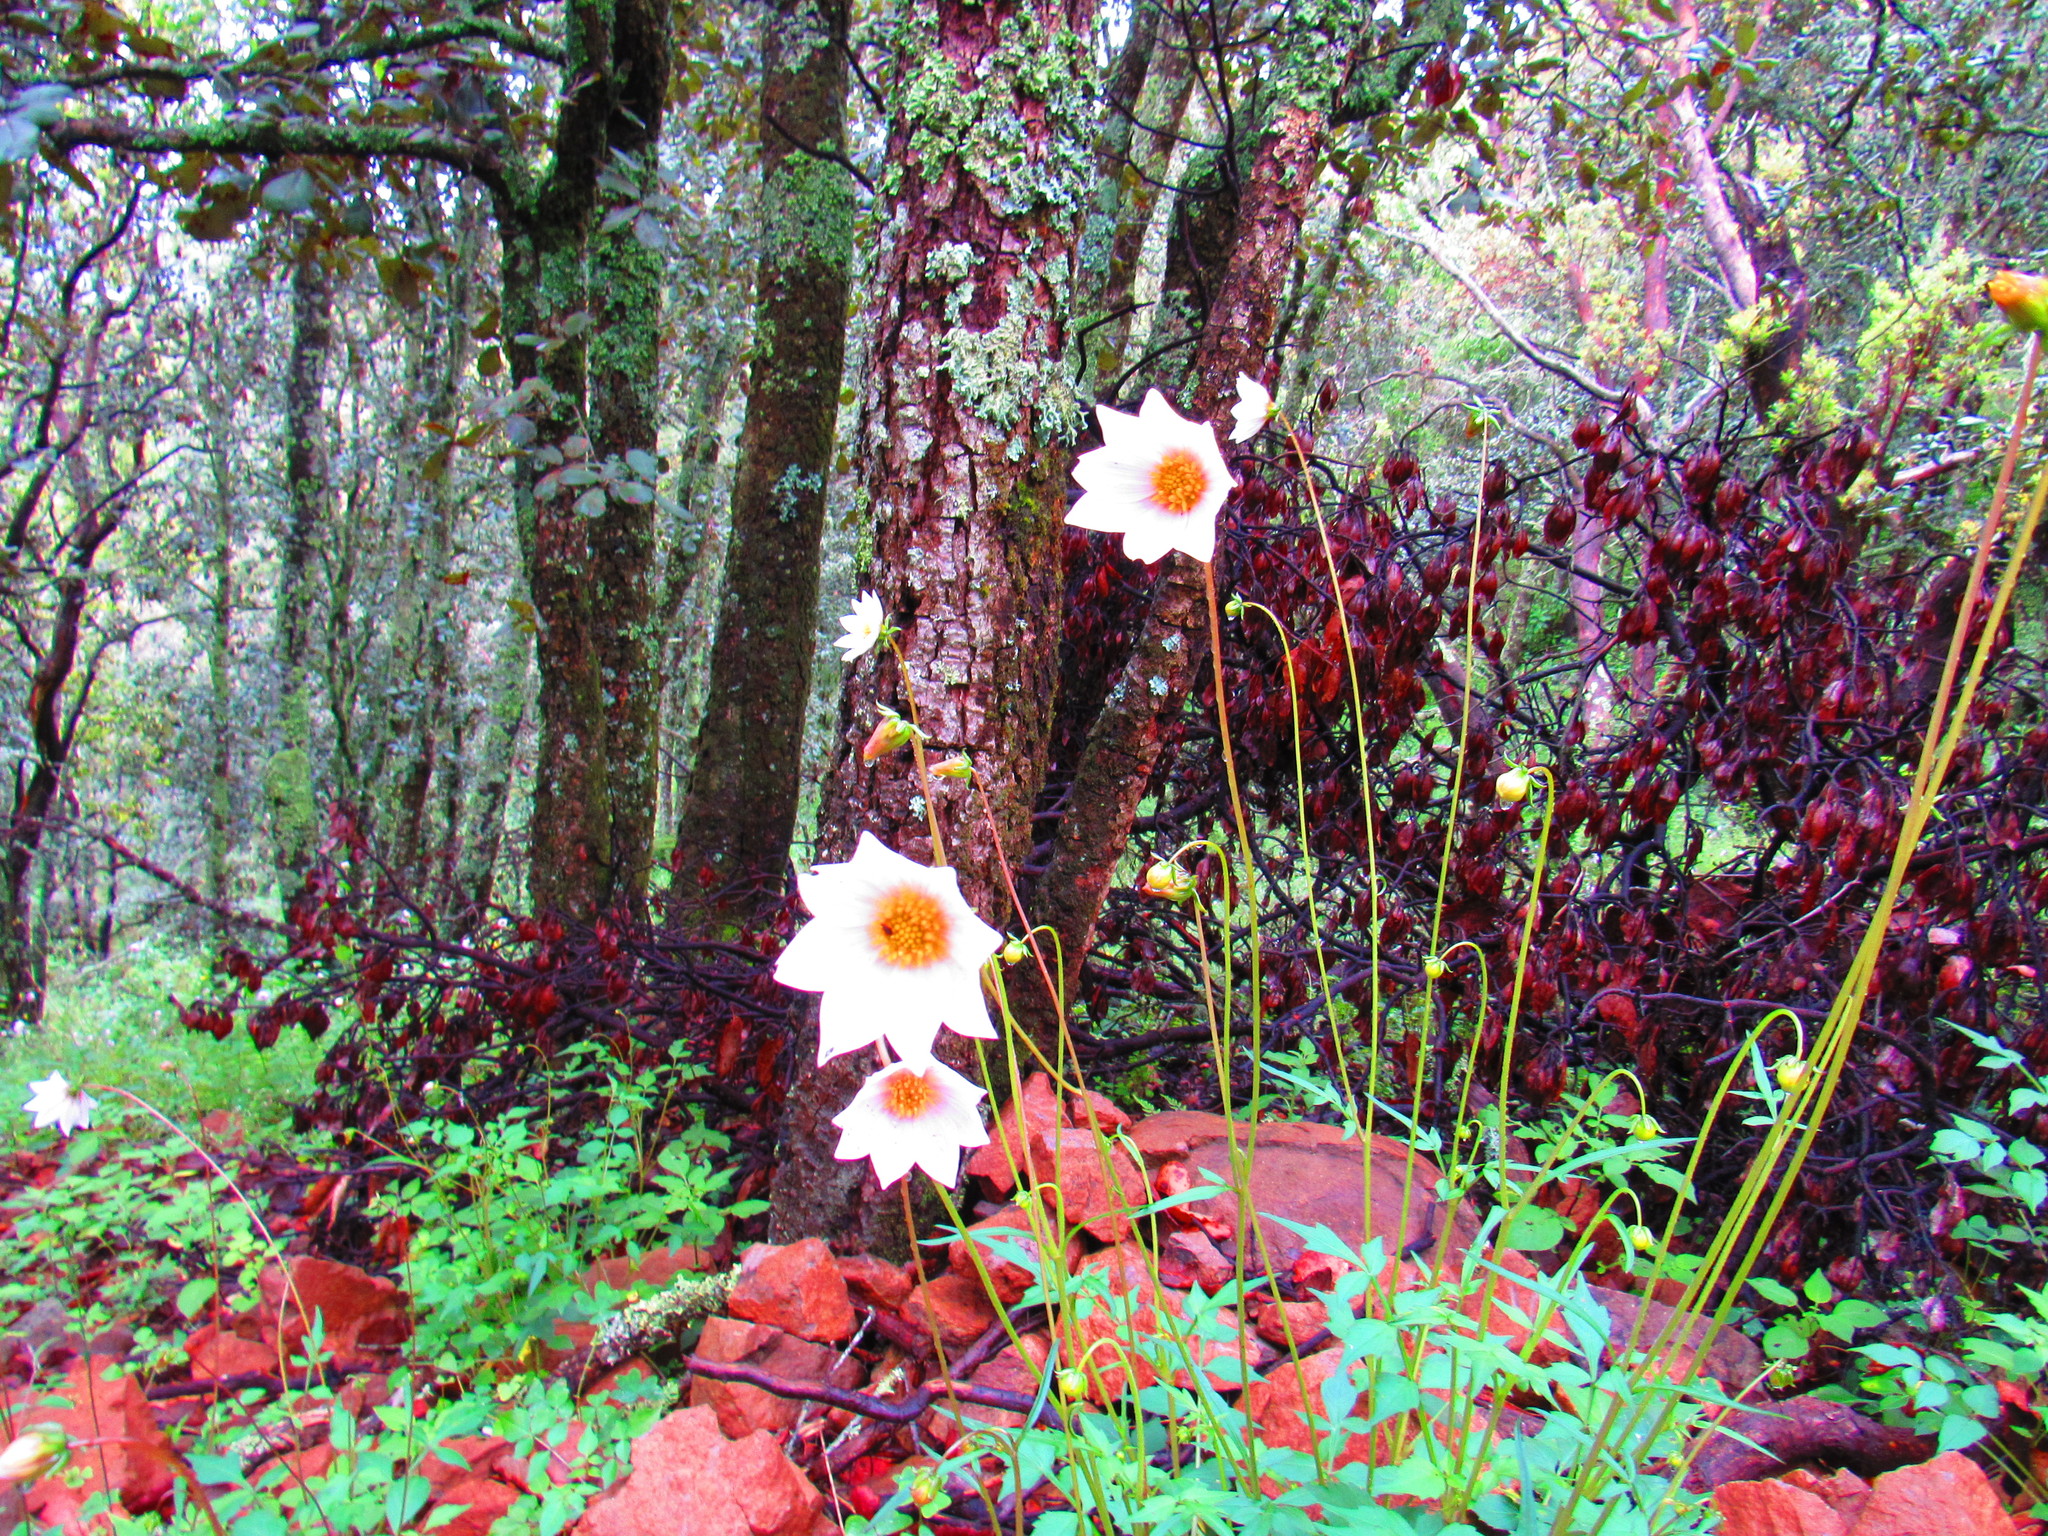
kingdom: Plantae
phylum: Tracheophyta
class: Magnoliopsida
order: Asterales
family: Asteraceae
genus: Dahlia
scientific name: Dahlia merckii
